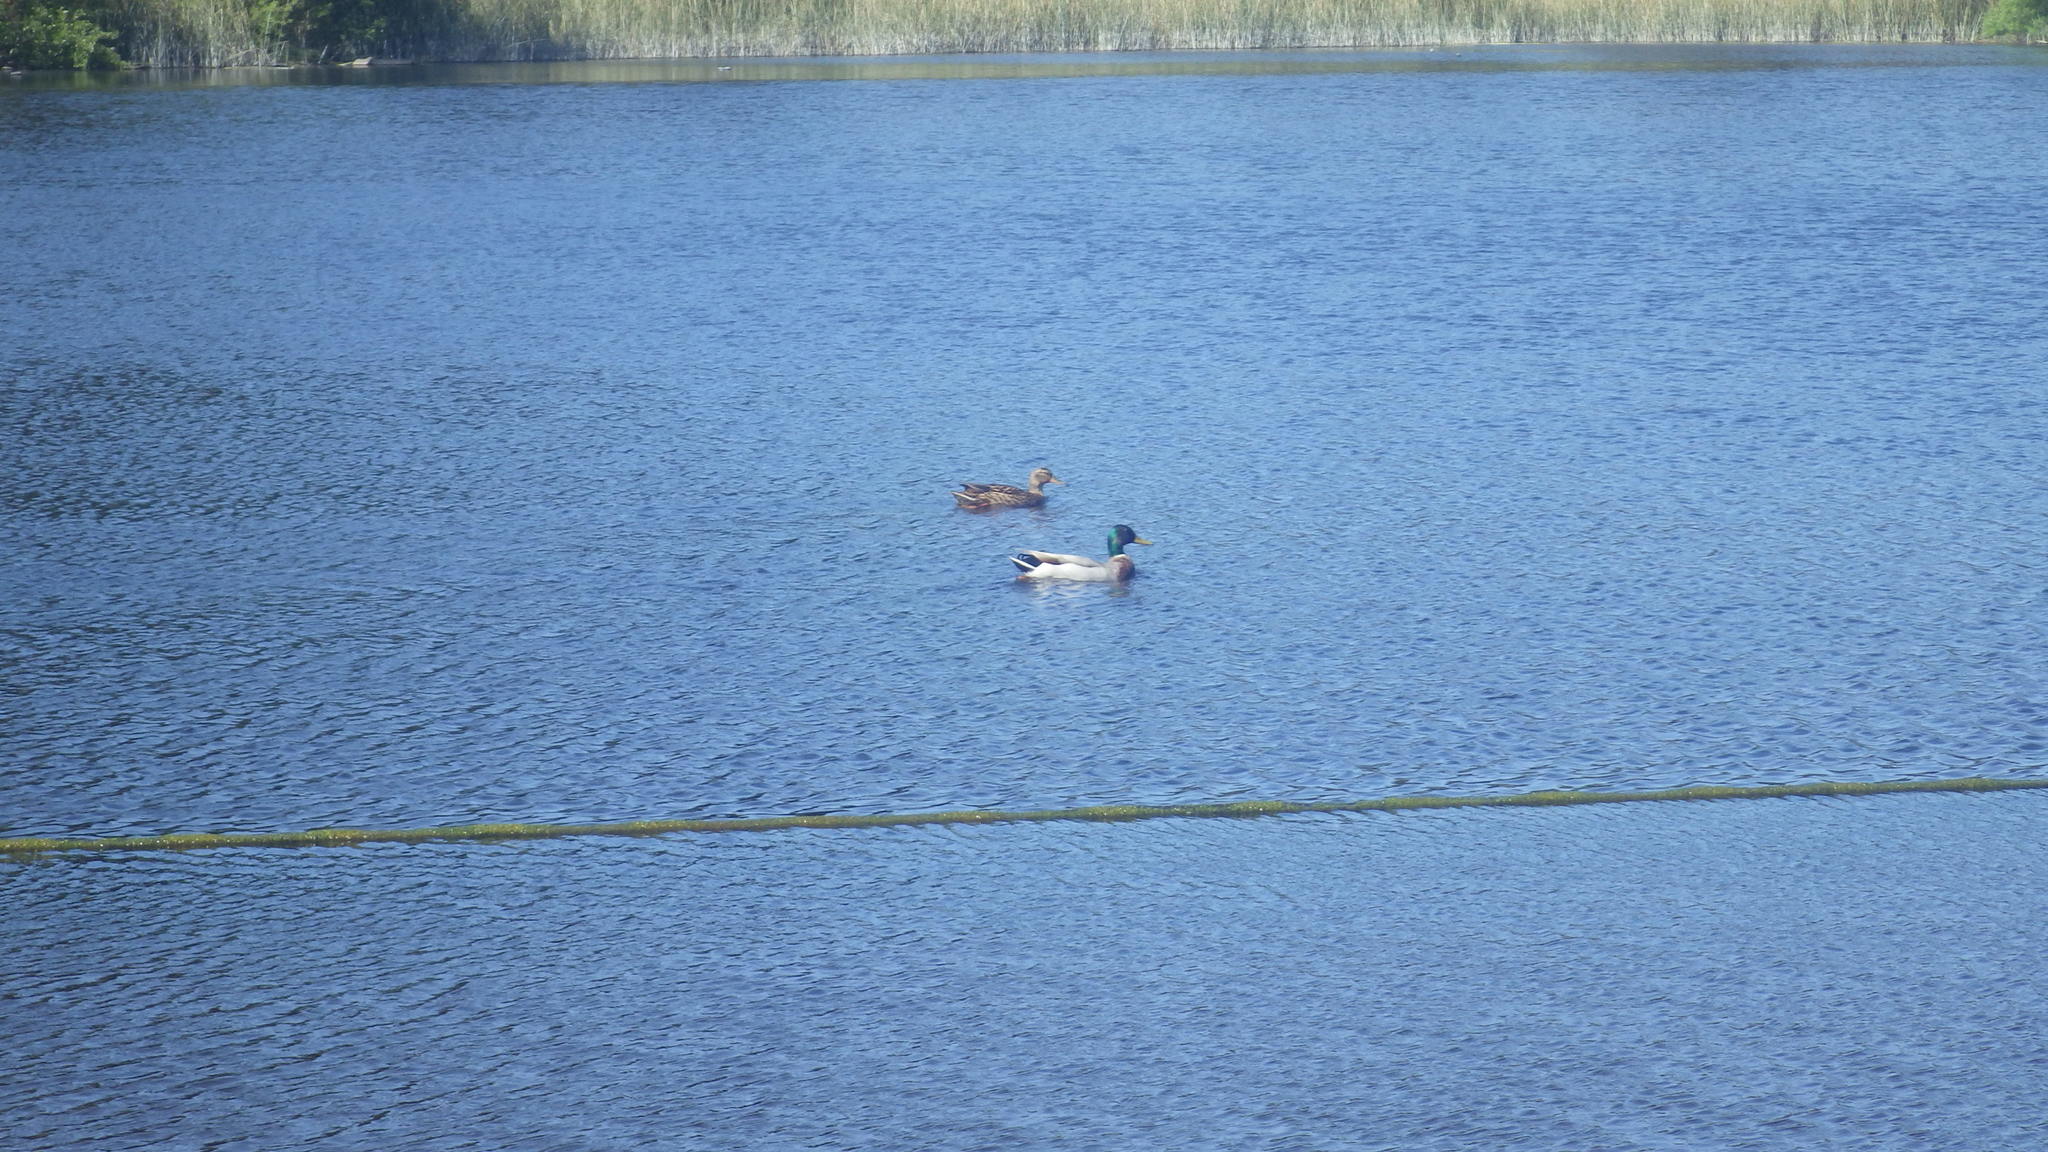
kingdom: Animalia
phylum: Chordata
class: Aves
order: Anseriformes
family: Anatidae
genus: Anas
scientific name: Anas platyrhynchos
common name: Mallard
